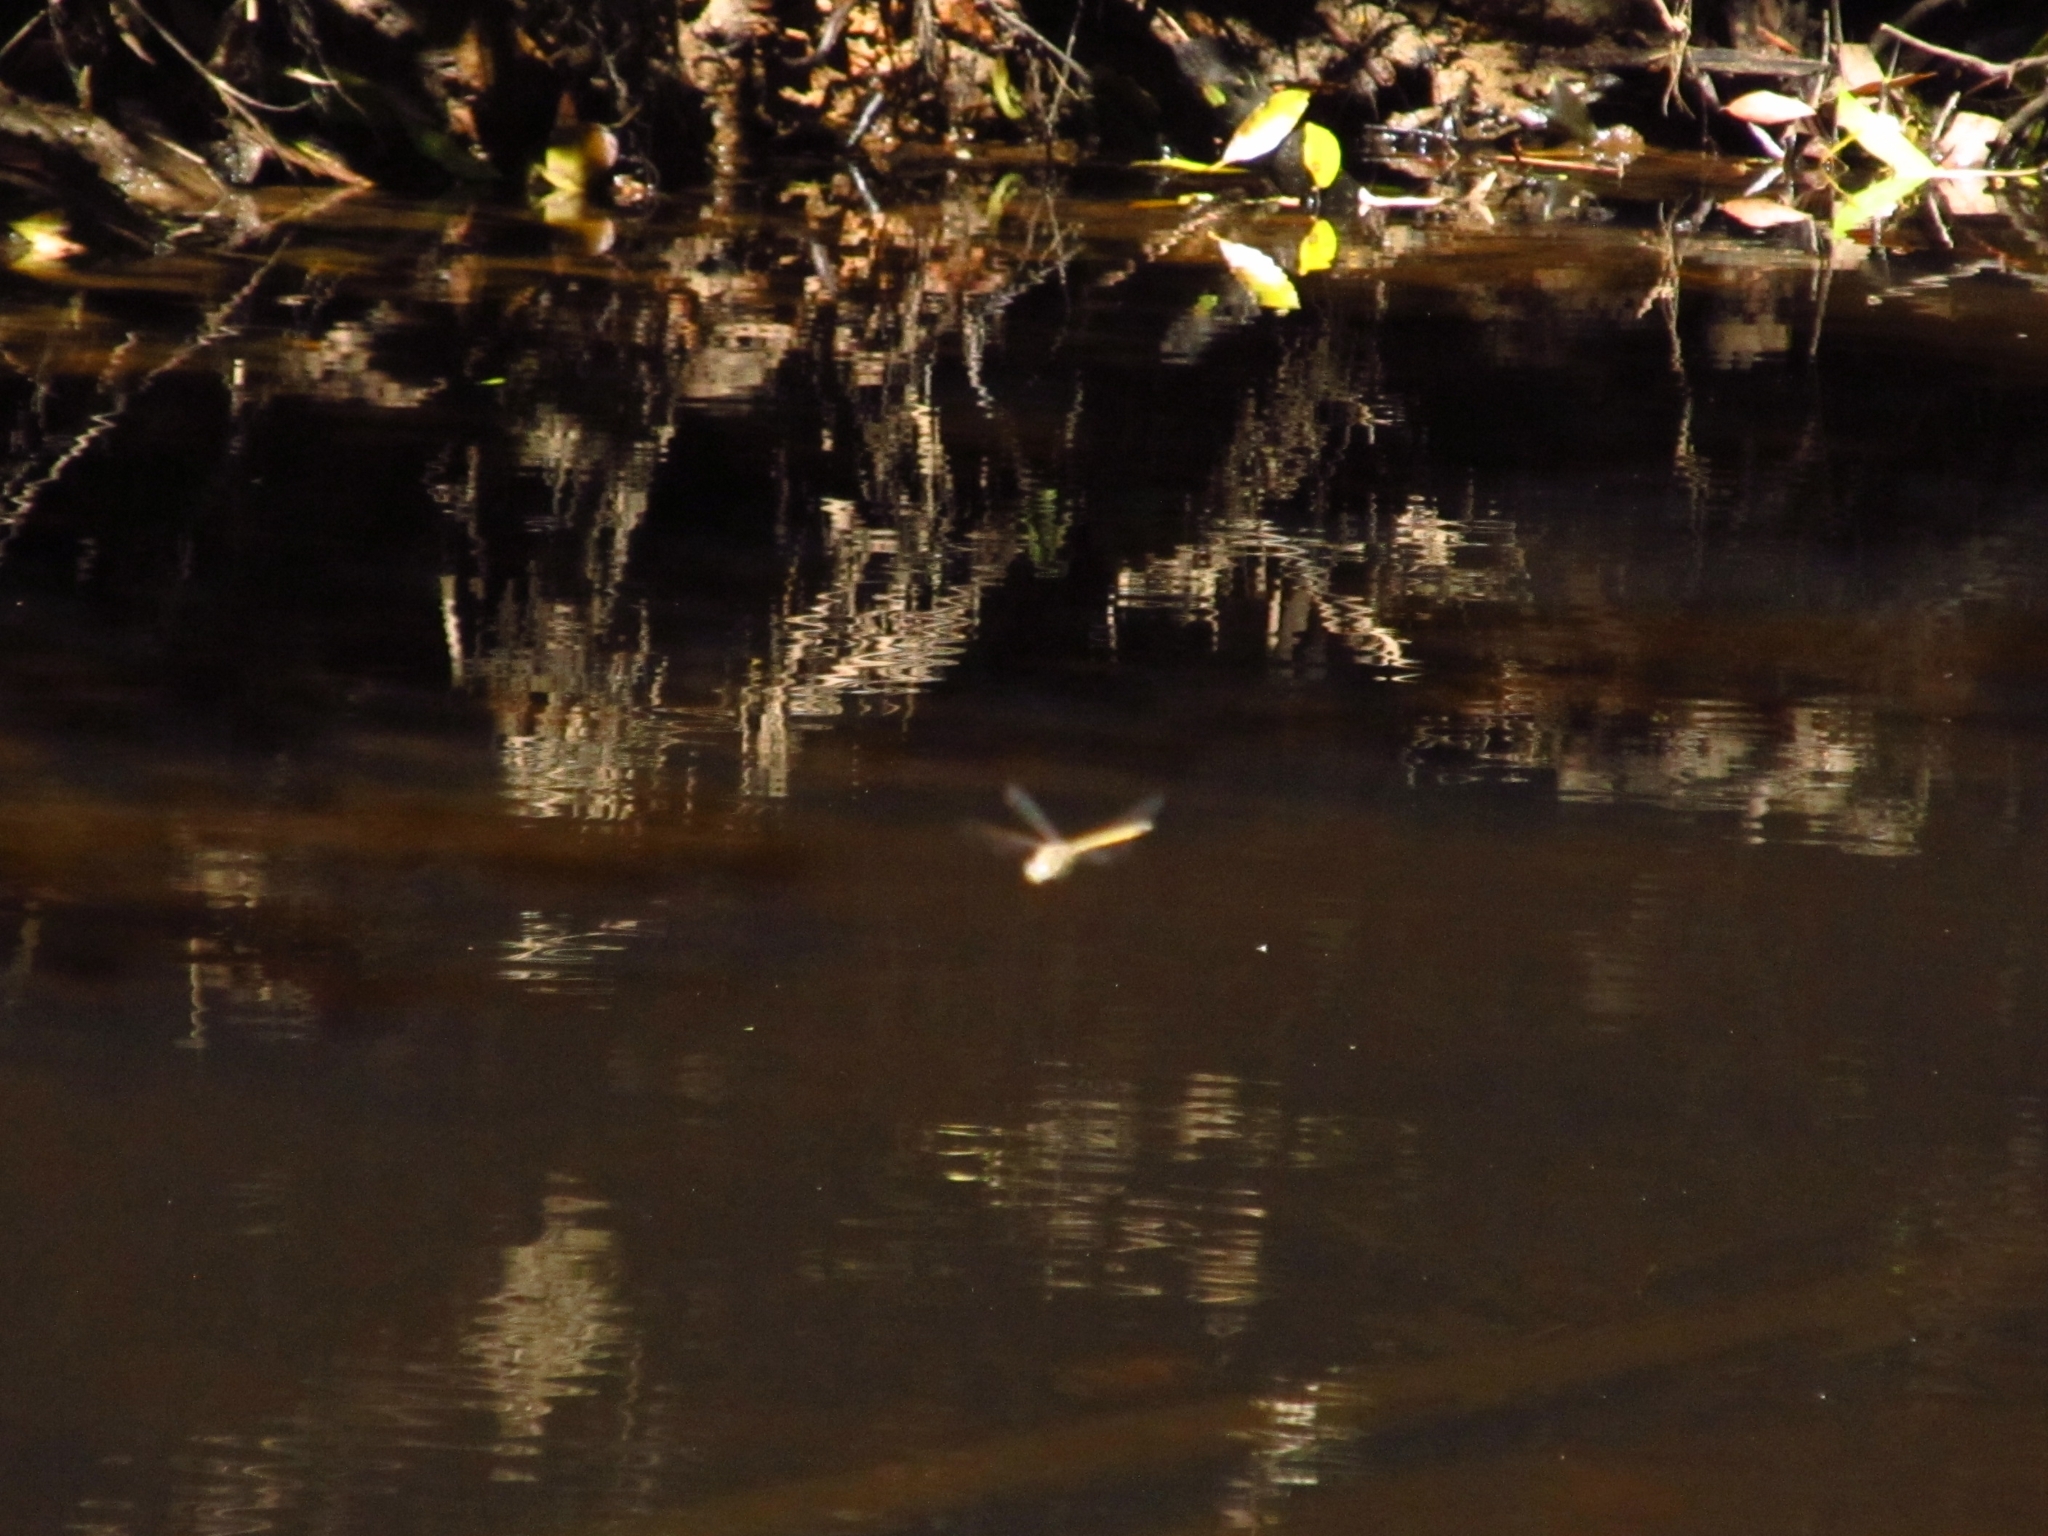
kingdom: Animalia
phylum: Arthropoda
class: Insecta
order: Odonata
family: Corduliidae
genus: Hemicordulia
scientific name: Hemicordulia tau
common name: Tau emerald
